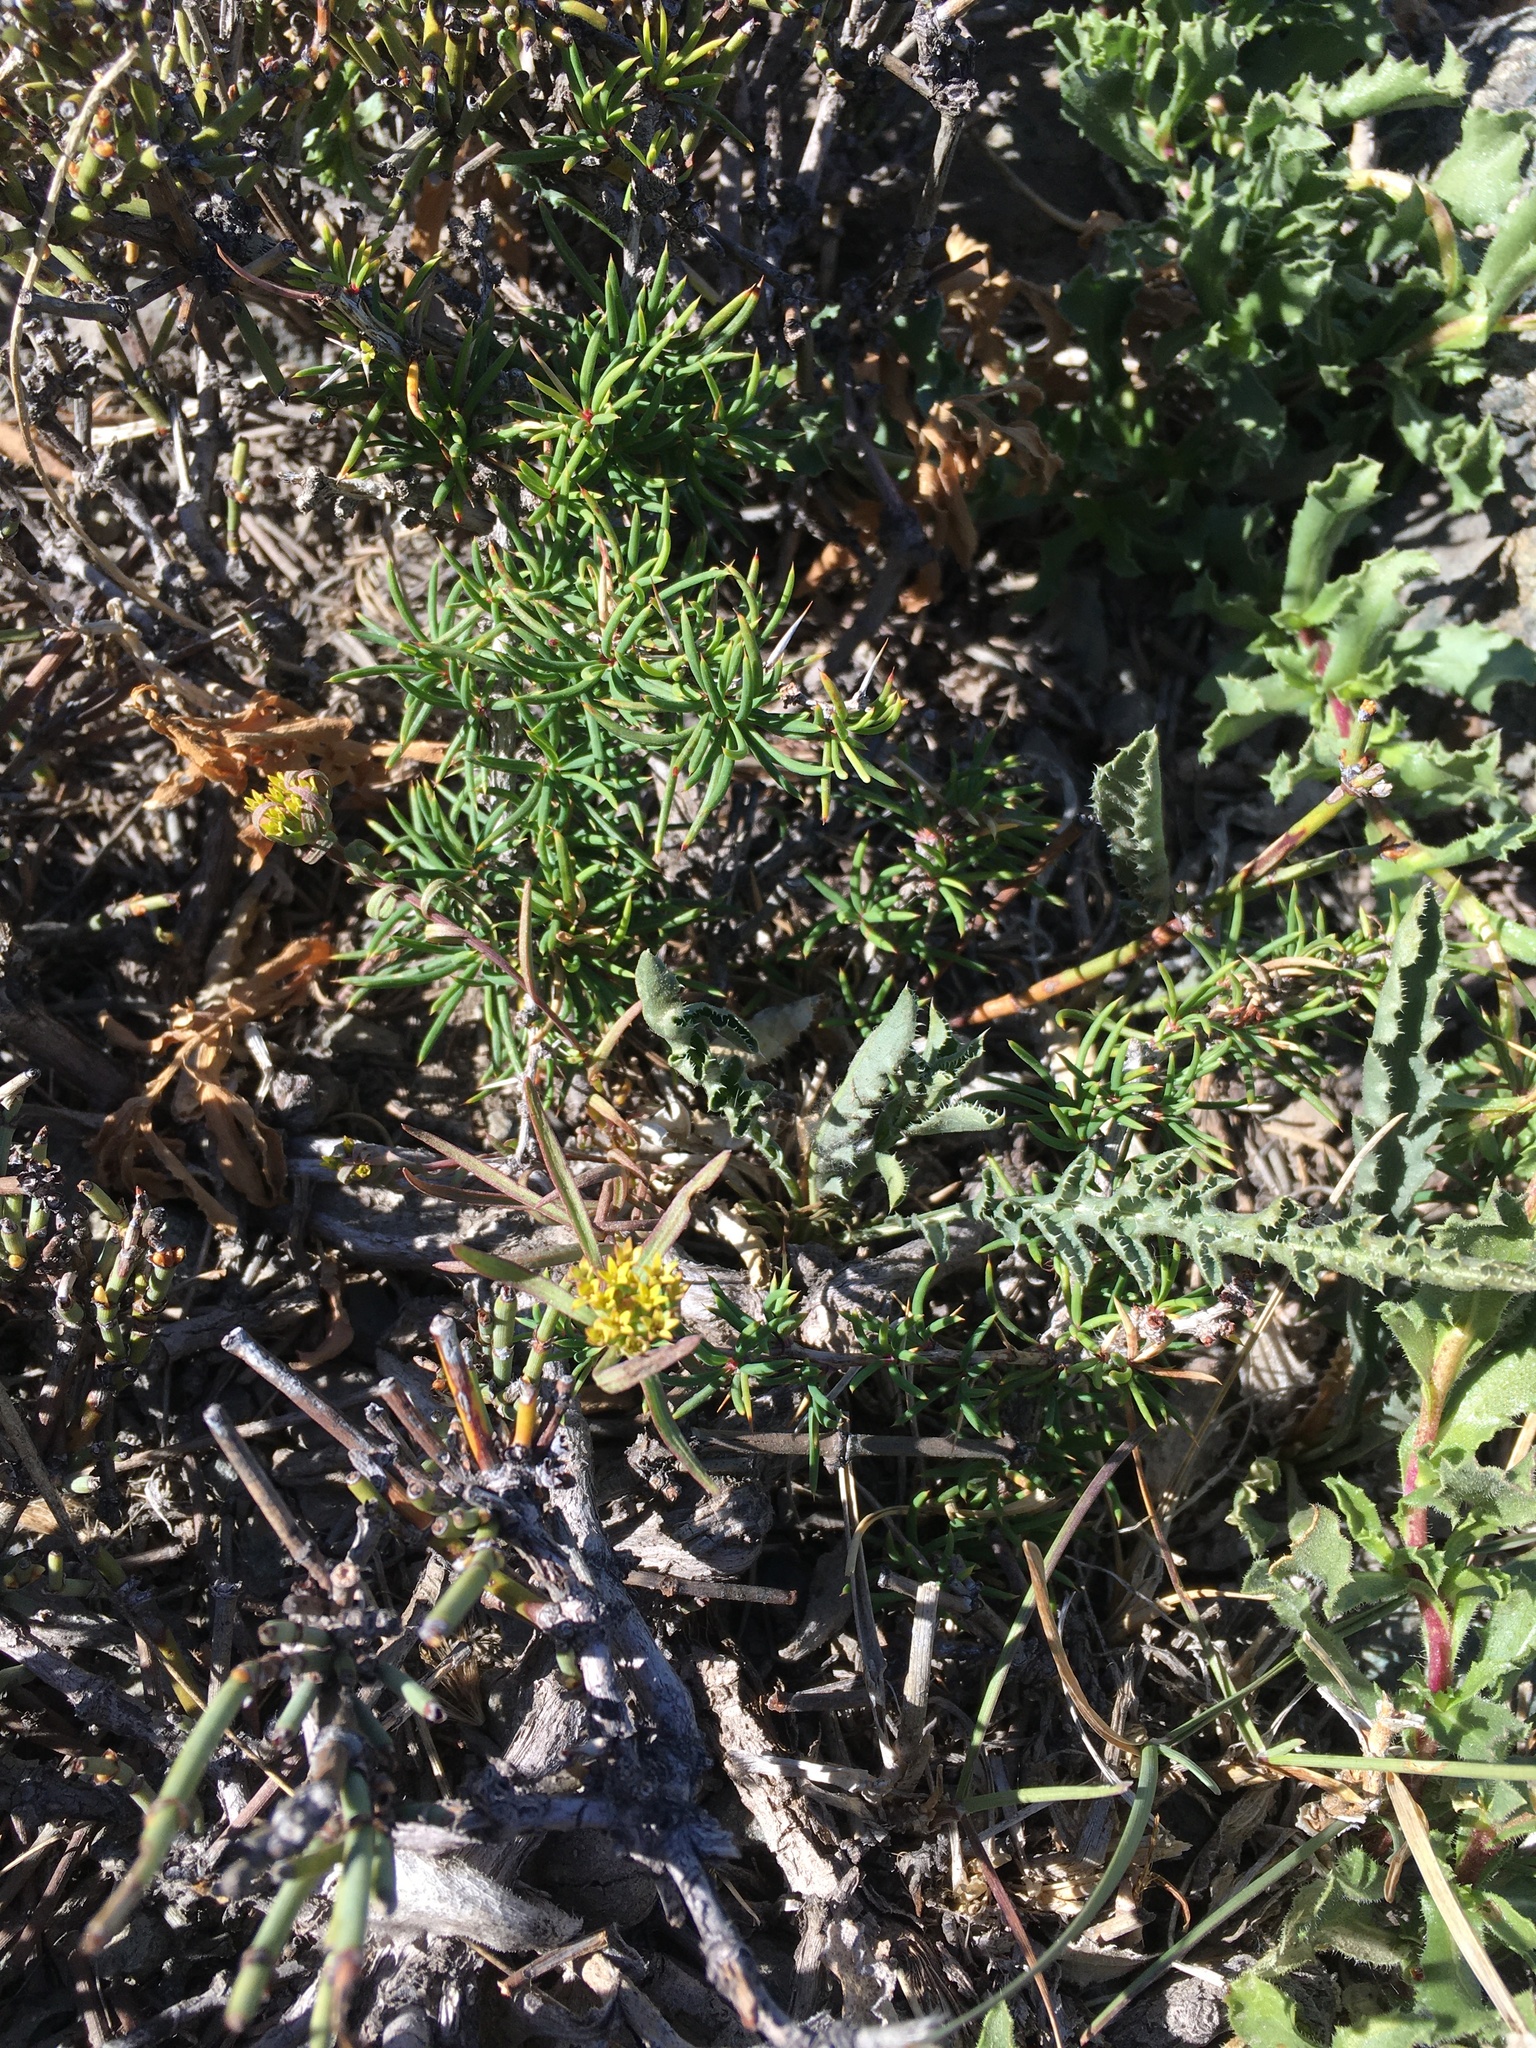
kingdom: Plantae
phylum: Tracheophyta
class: Magnoliopsida
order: Santalales
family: Schoepfiaceae
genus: Quinchamalium
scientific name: Quinchamalium chilense
